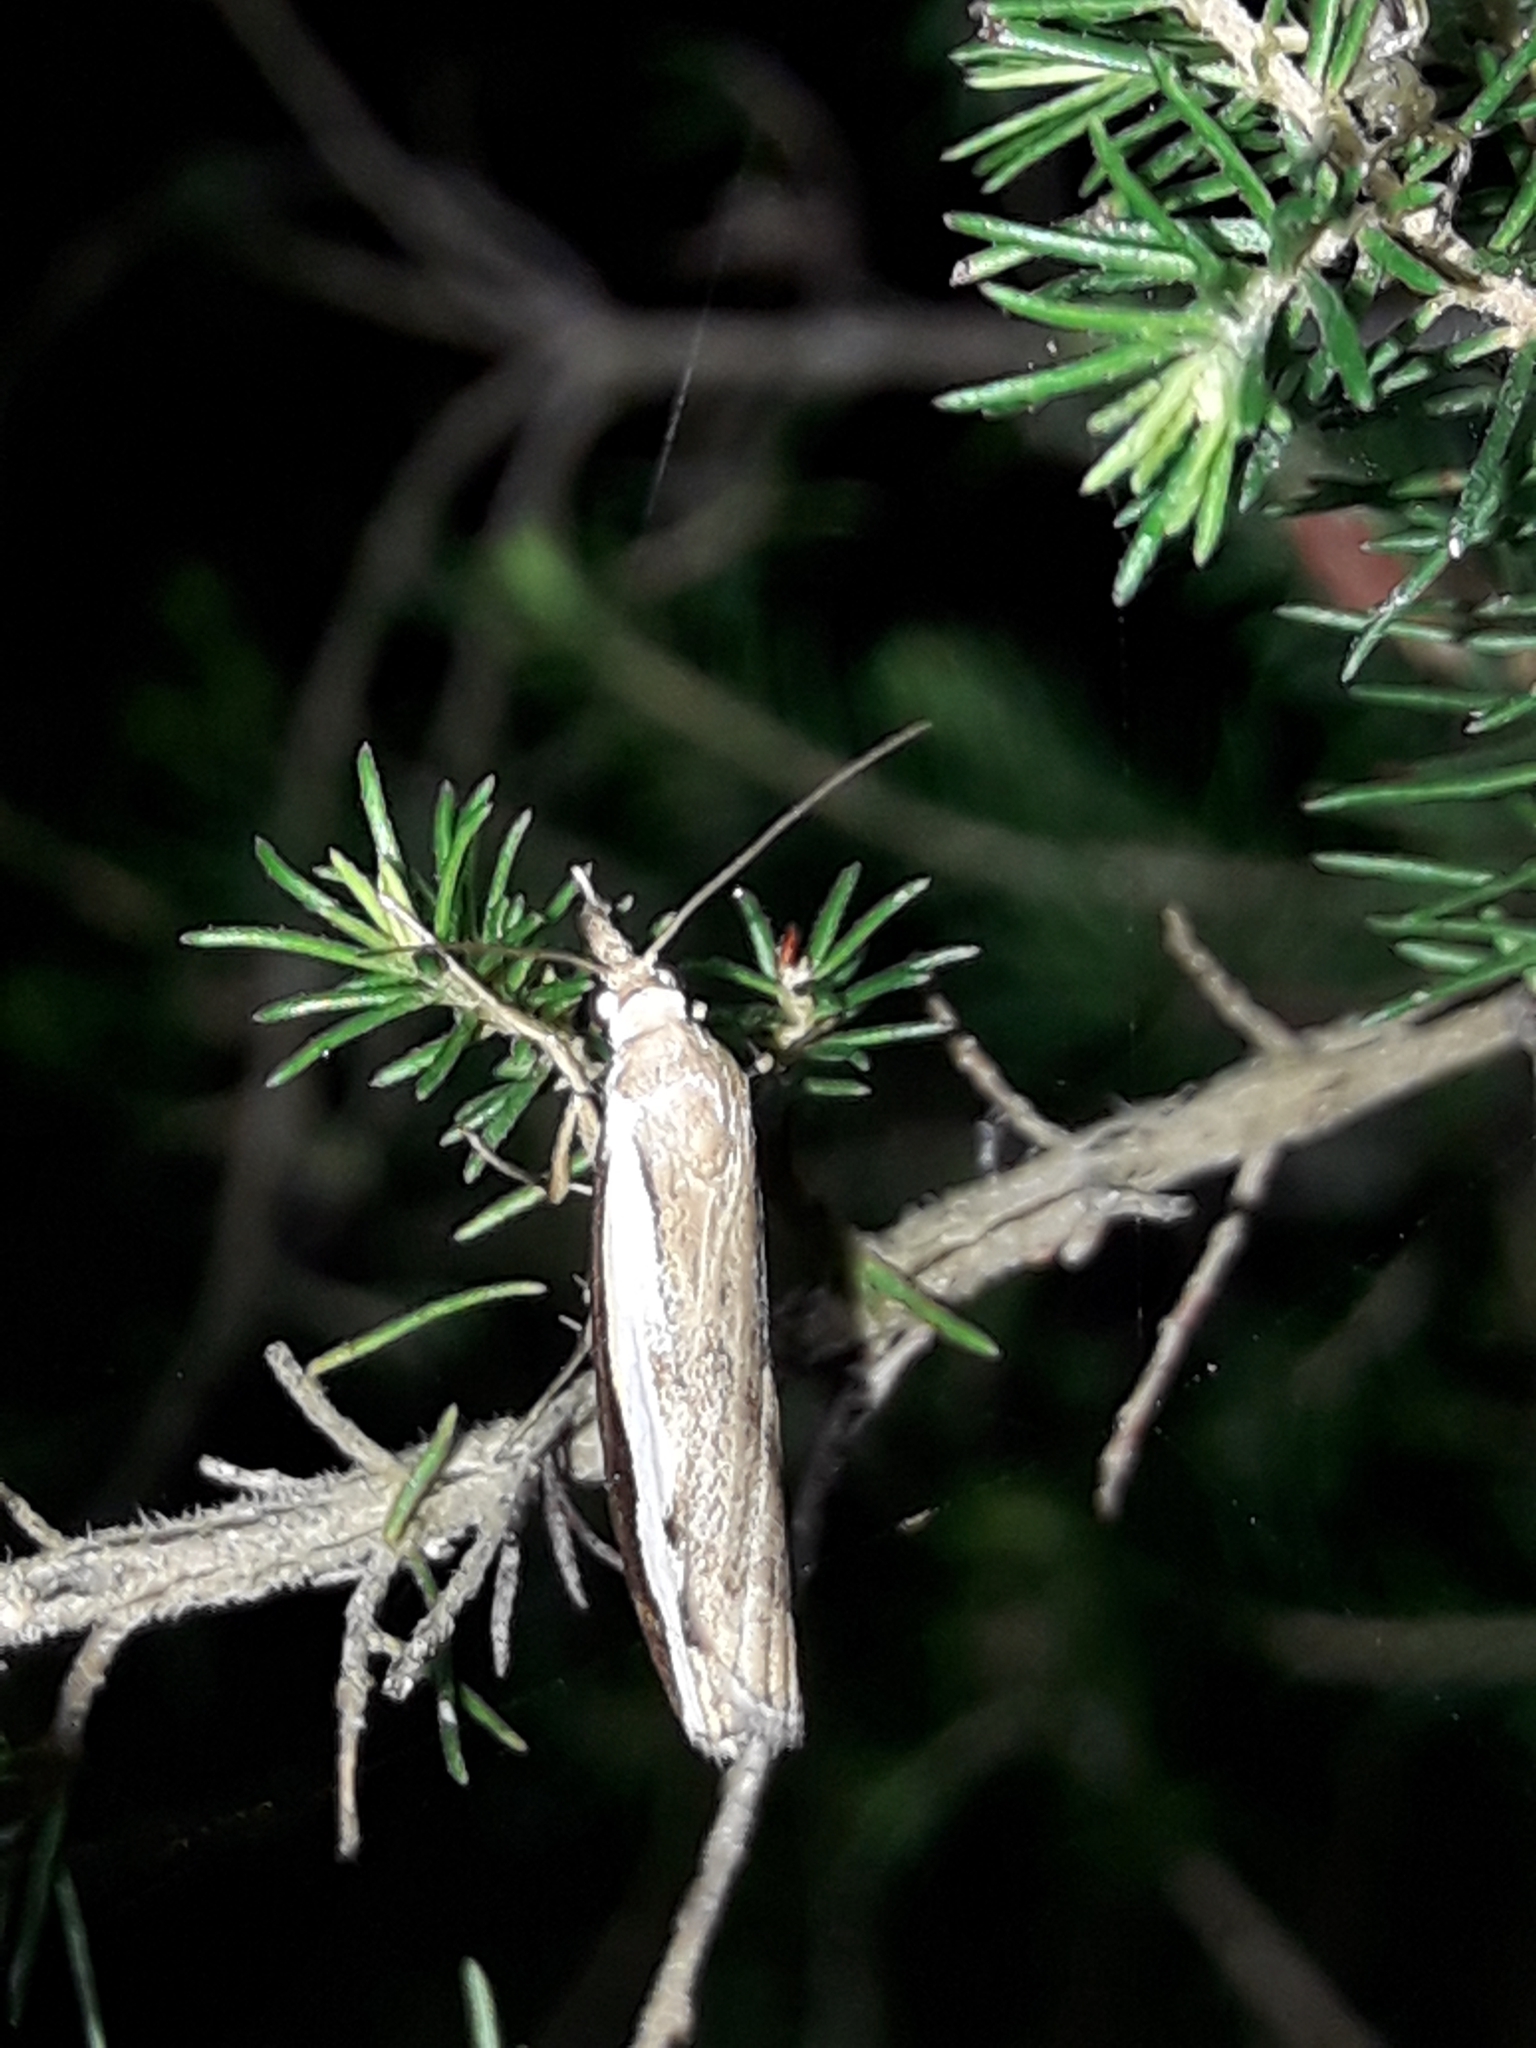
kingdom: Animalia
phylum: Arthropoda
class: Insecta
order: Lepidoptera
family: Crambidae
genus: Orocrambus
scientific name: Orocrambus flexuosellus
